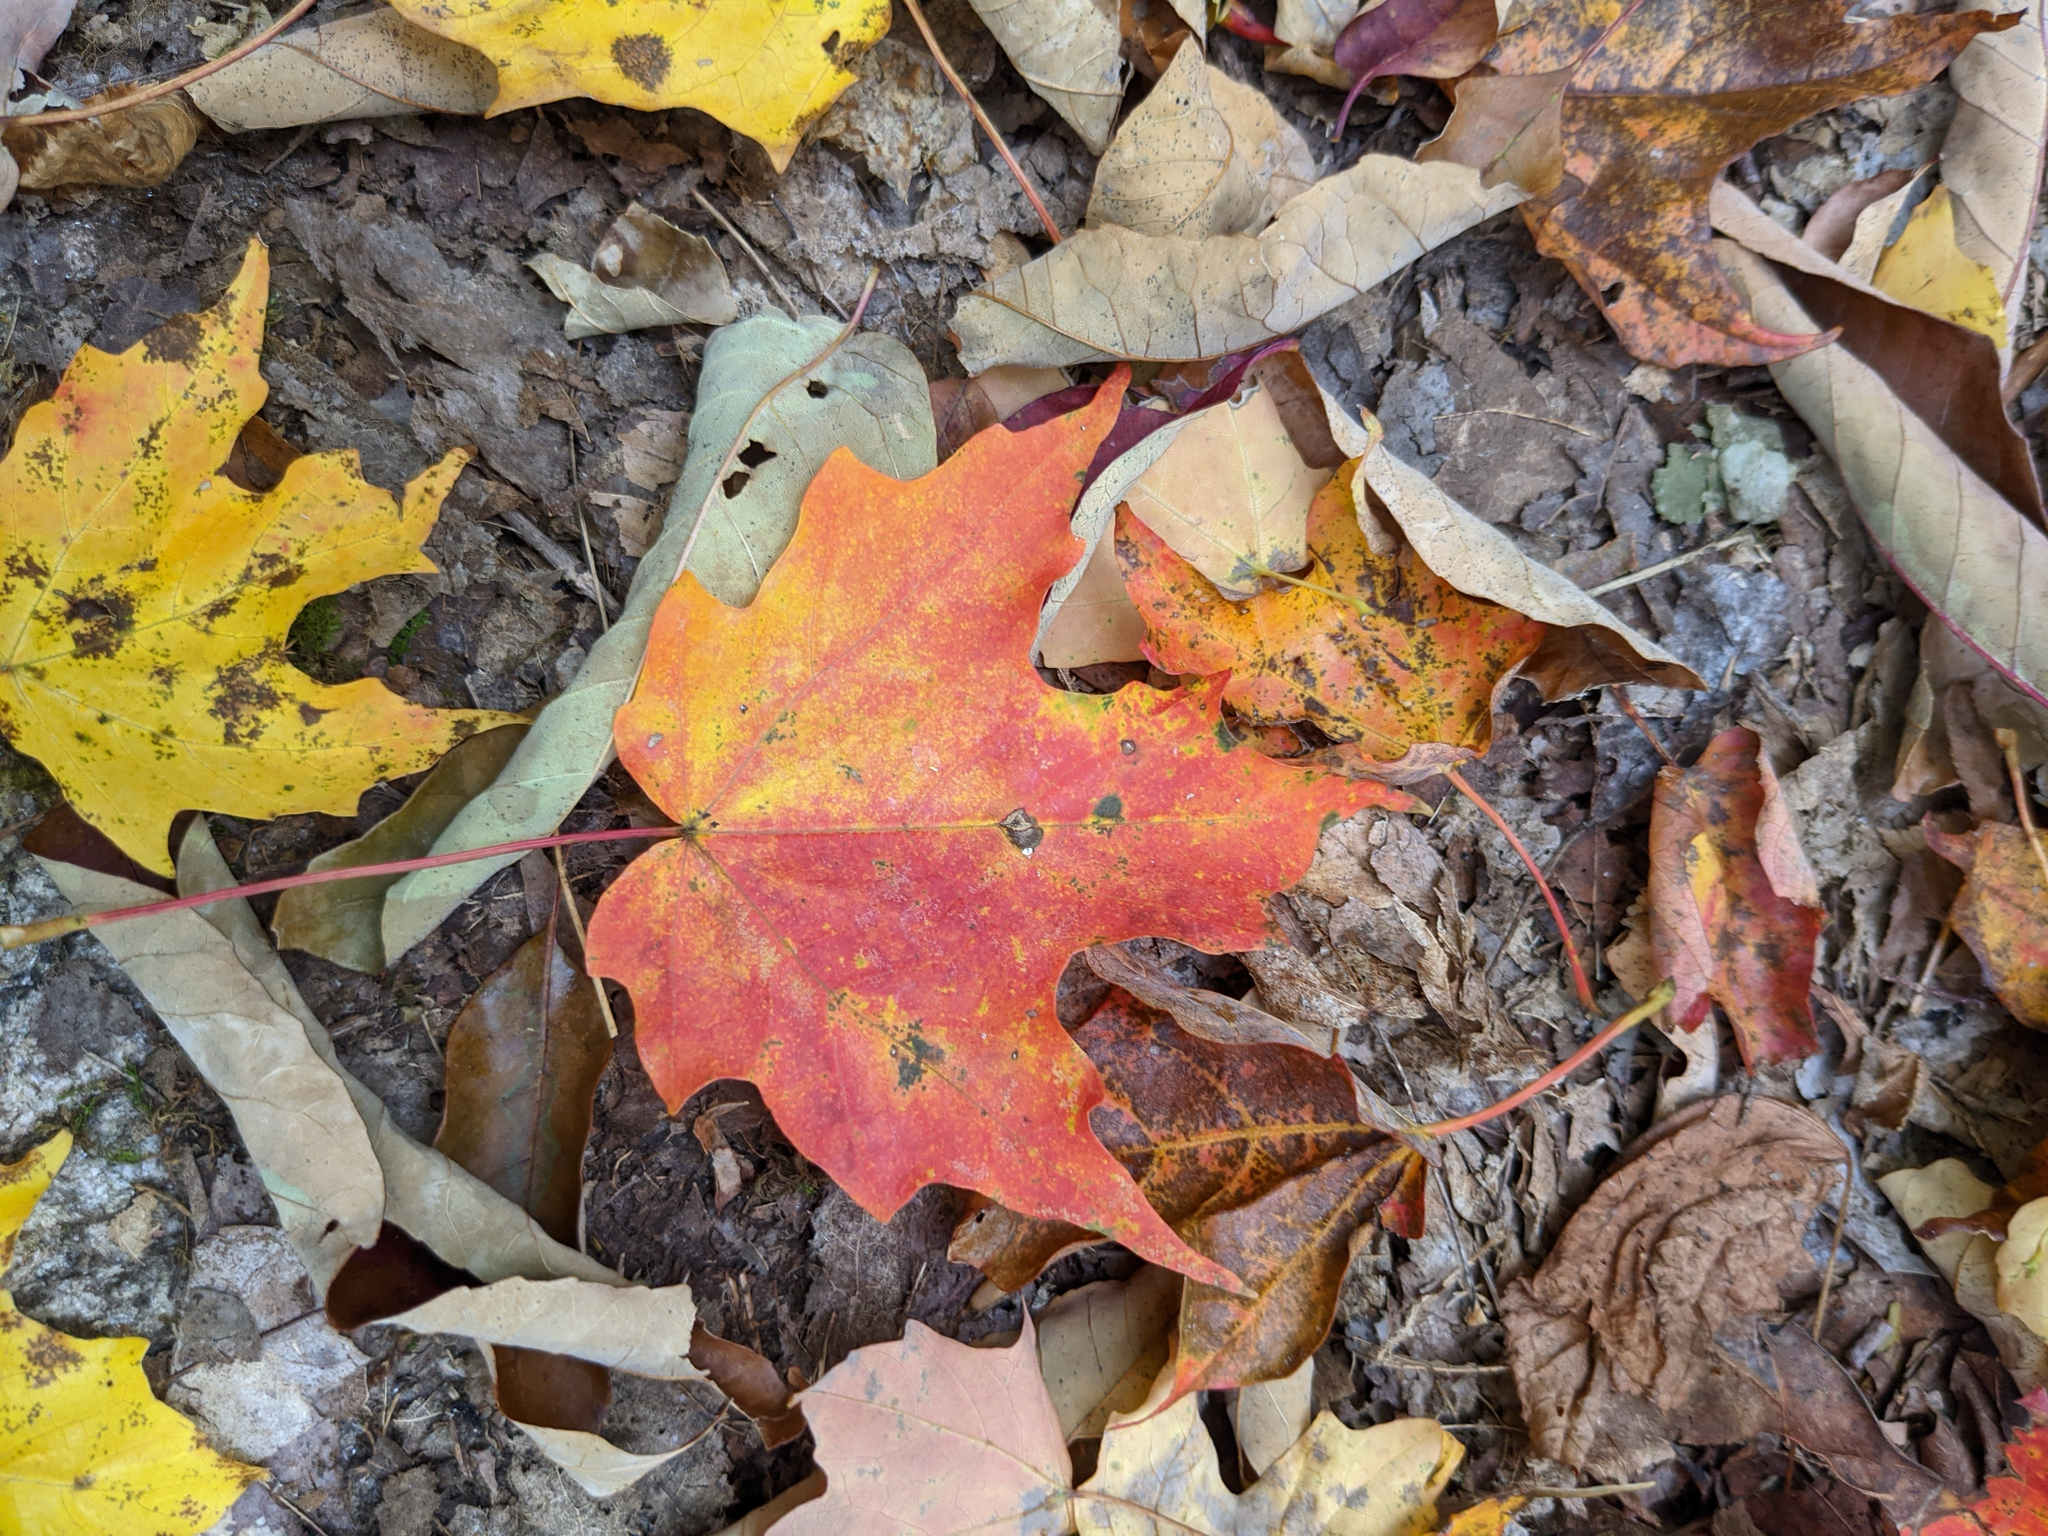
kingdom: Plantae
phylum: Tracheophyta
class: Magnoliopsida
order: Sapindales
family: Sapindaceae
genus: Acer
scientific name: Acer saccharum
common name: Sugar maple
